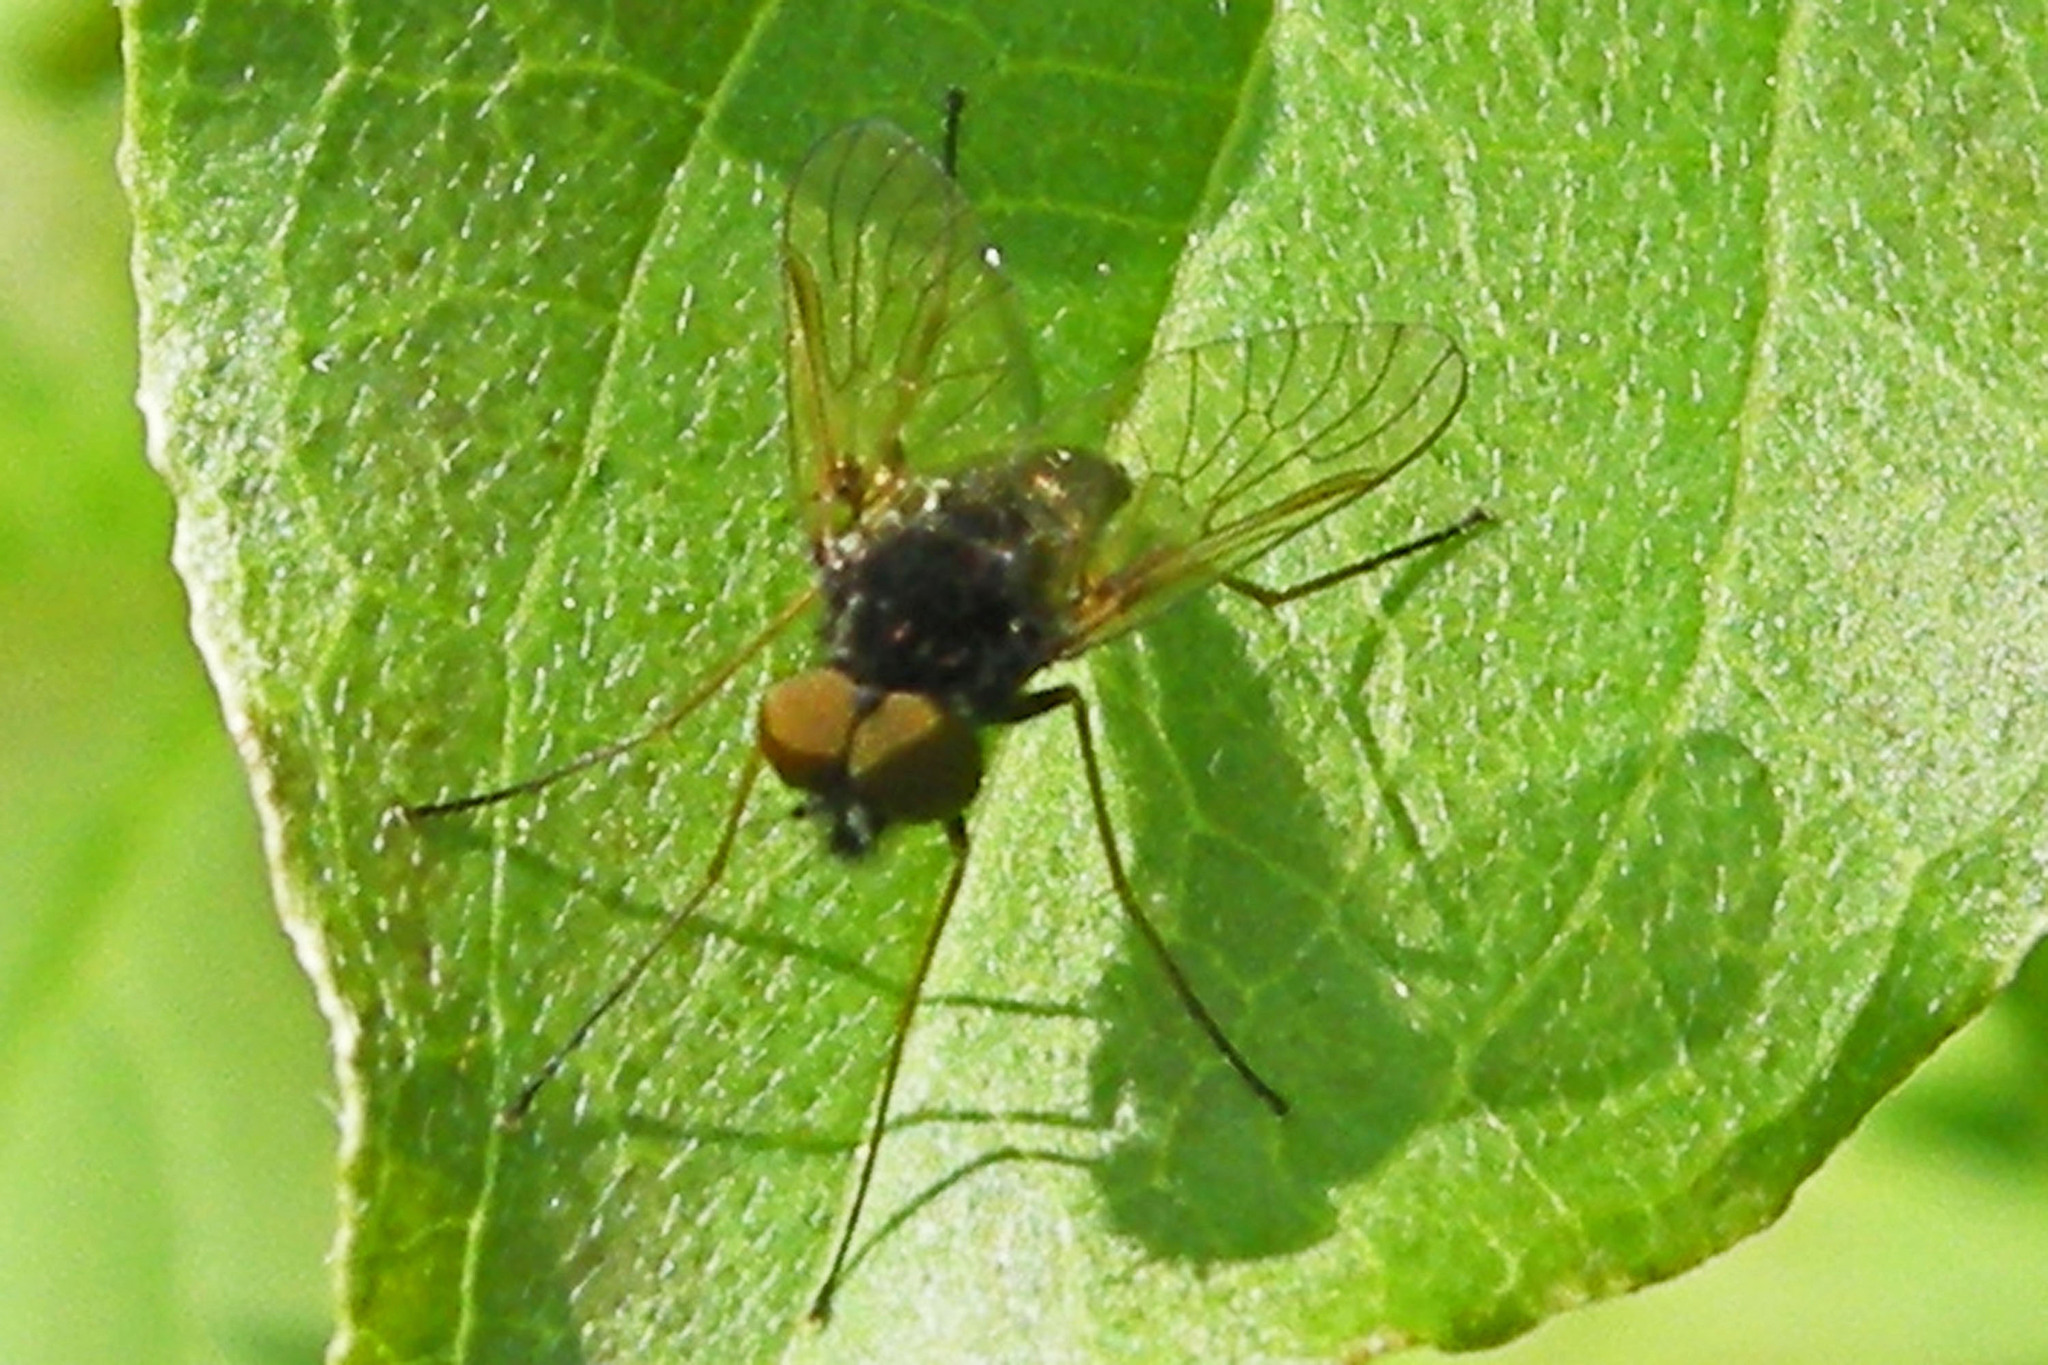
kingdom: Animalia
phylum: Arthropoda
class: Insecta
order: Diptera
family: Rhagionidae
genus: Chrysopilus
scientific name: Chrysopilus proximus
